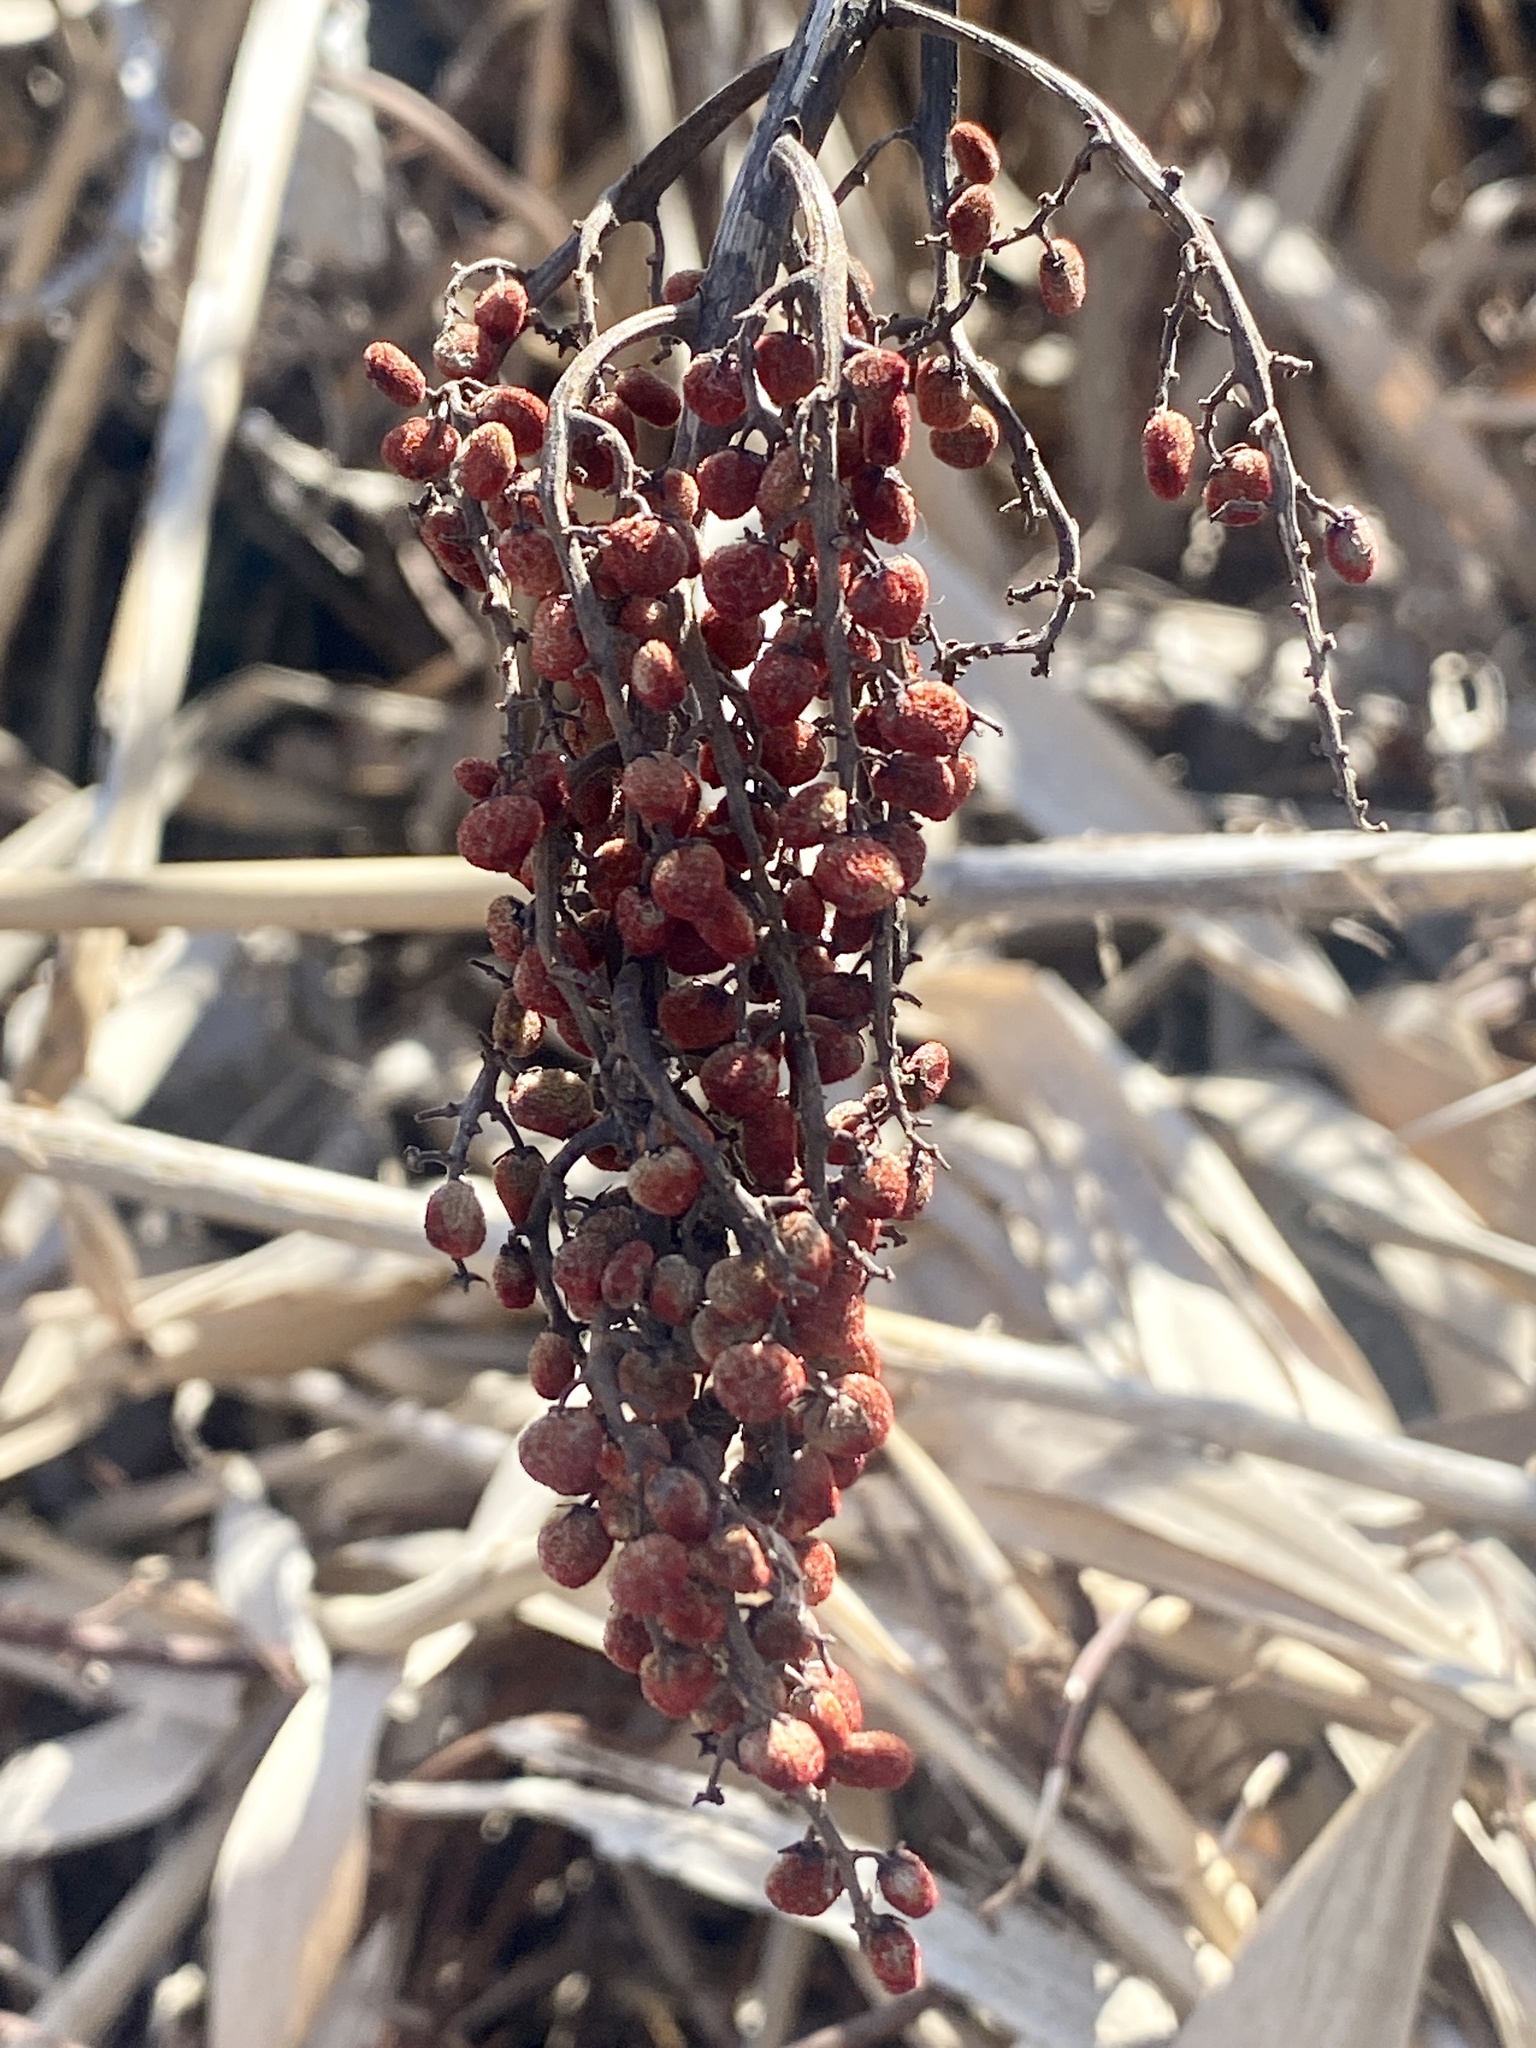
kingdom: Plantae
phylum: Tracheophyta
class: Magnoliopsida
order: Sapindales
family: Anacardiaceae
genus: Rhus
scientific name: Rhus glabra
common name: Scarlet sumac
